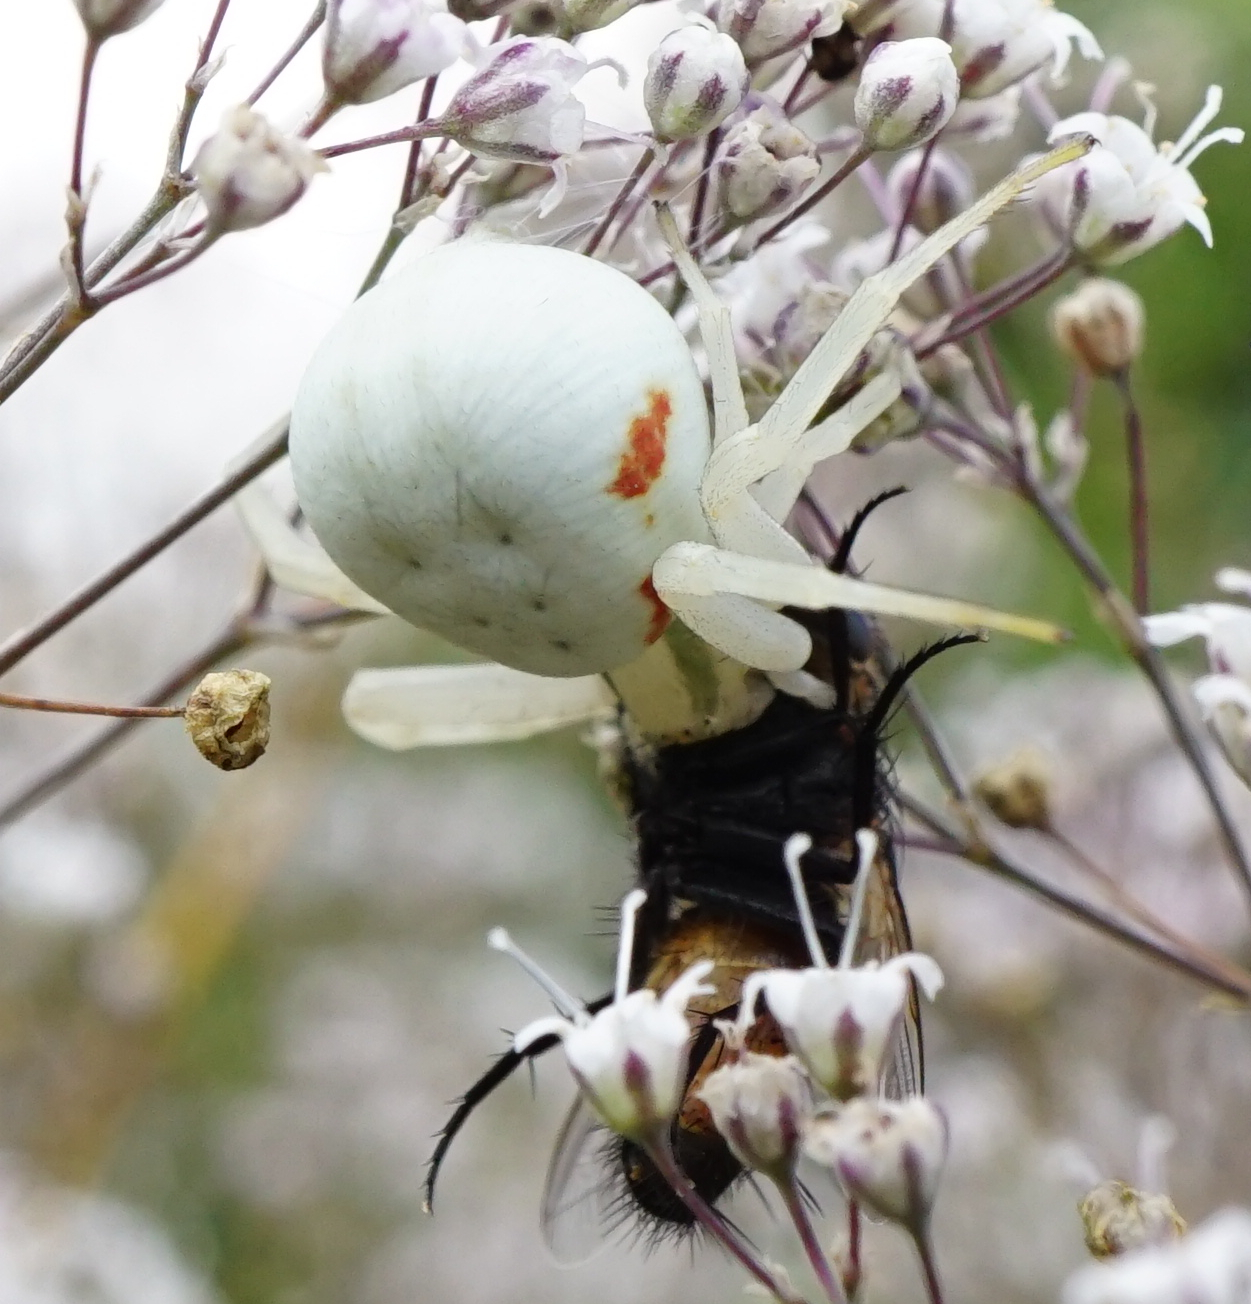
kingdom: Animalia
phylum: Arthropoda
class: Arachnida
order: Araneae
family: Thomisidae
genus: Misumena
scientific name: Misumena vatia
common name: Goldenrod crab spider
